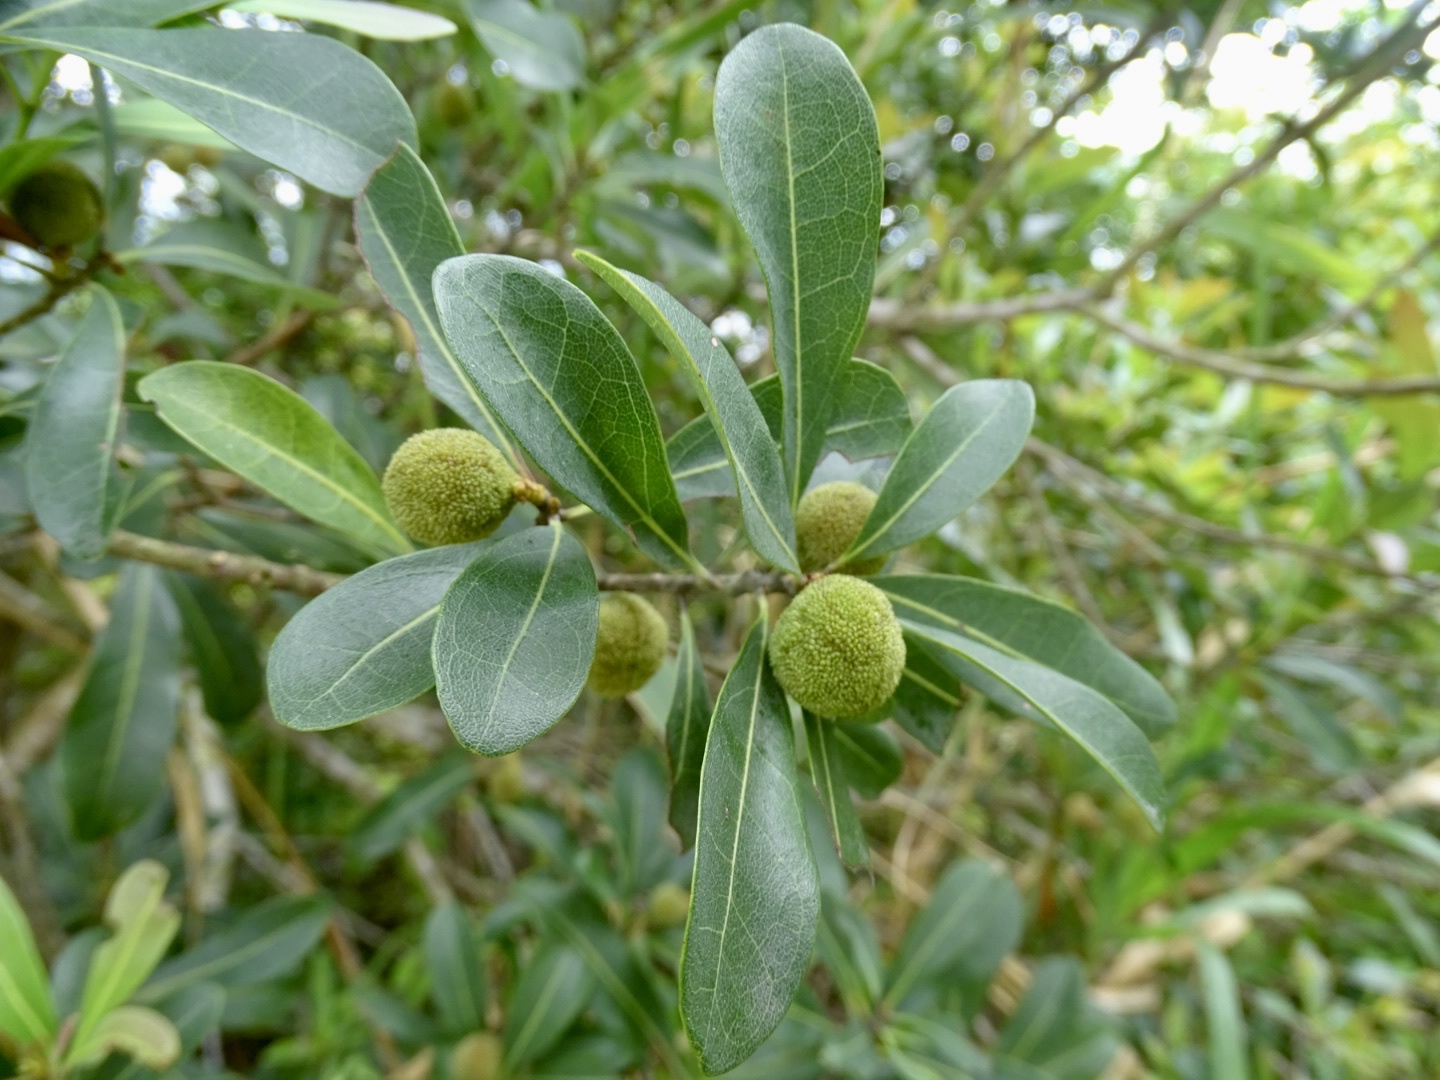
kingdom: Plantae
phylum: Tracheophyta
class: Magnoliopsida
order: Fagales
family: Myricaceae
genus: Morella
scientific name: Morella rubra
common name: Red bayberry
